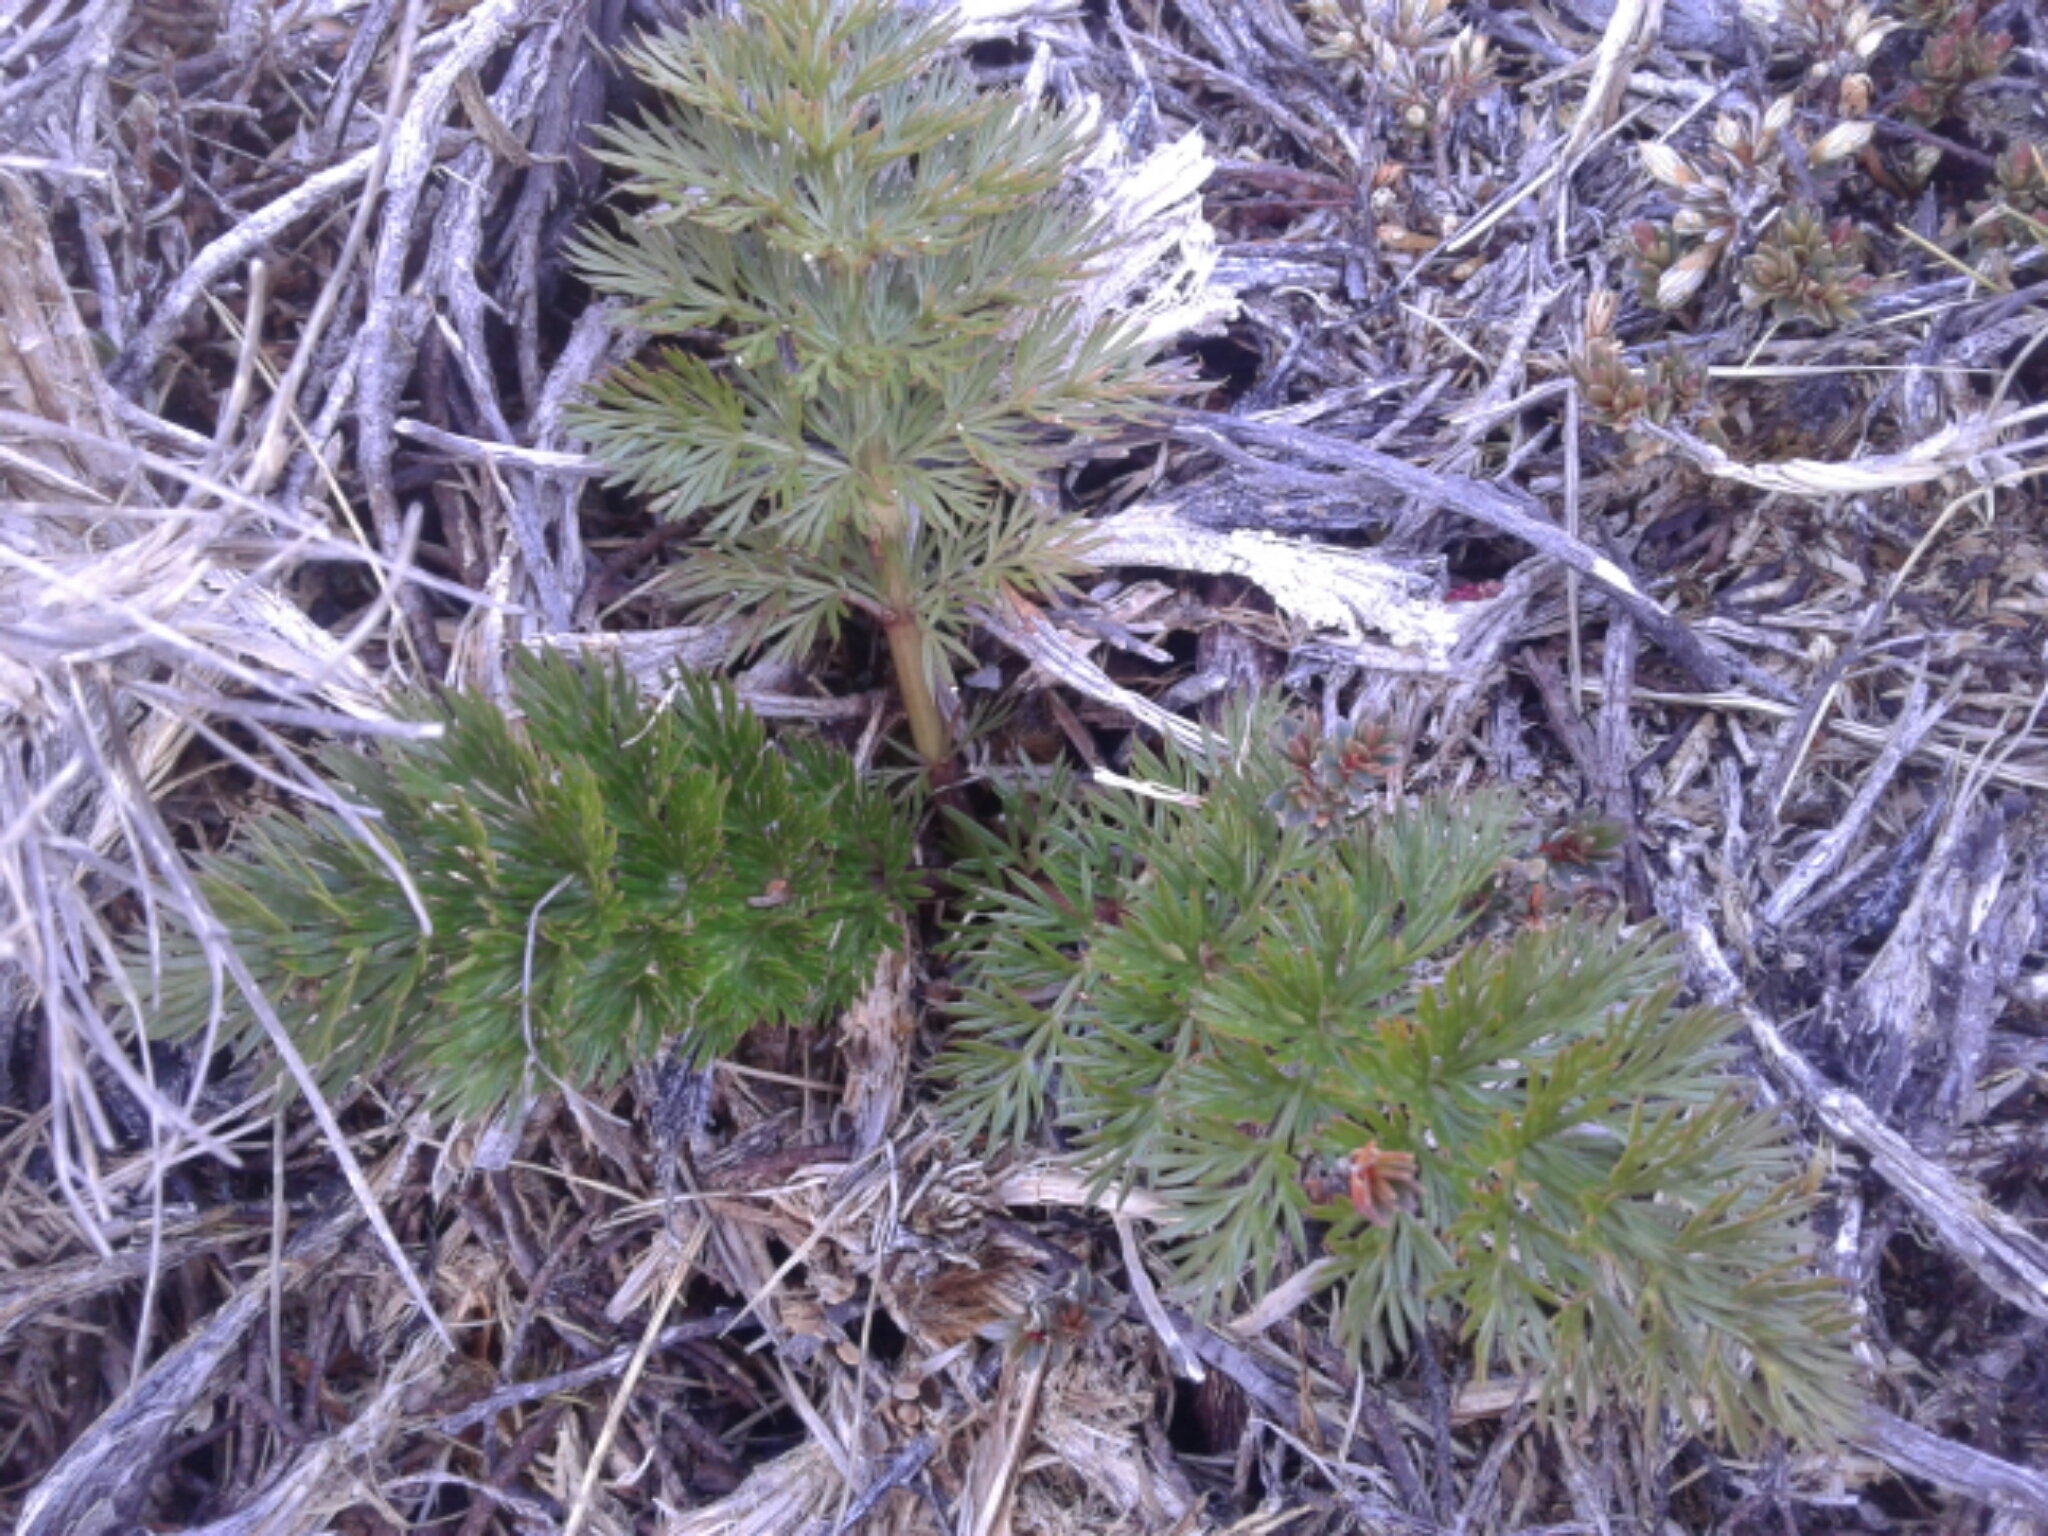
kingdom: Plantae
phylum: Tracheophyta
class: Magnoliopsida
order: Apiales
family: Apiaceae
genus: Anisotome
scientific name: Anisotome haastii
